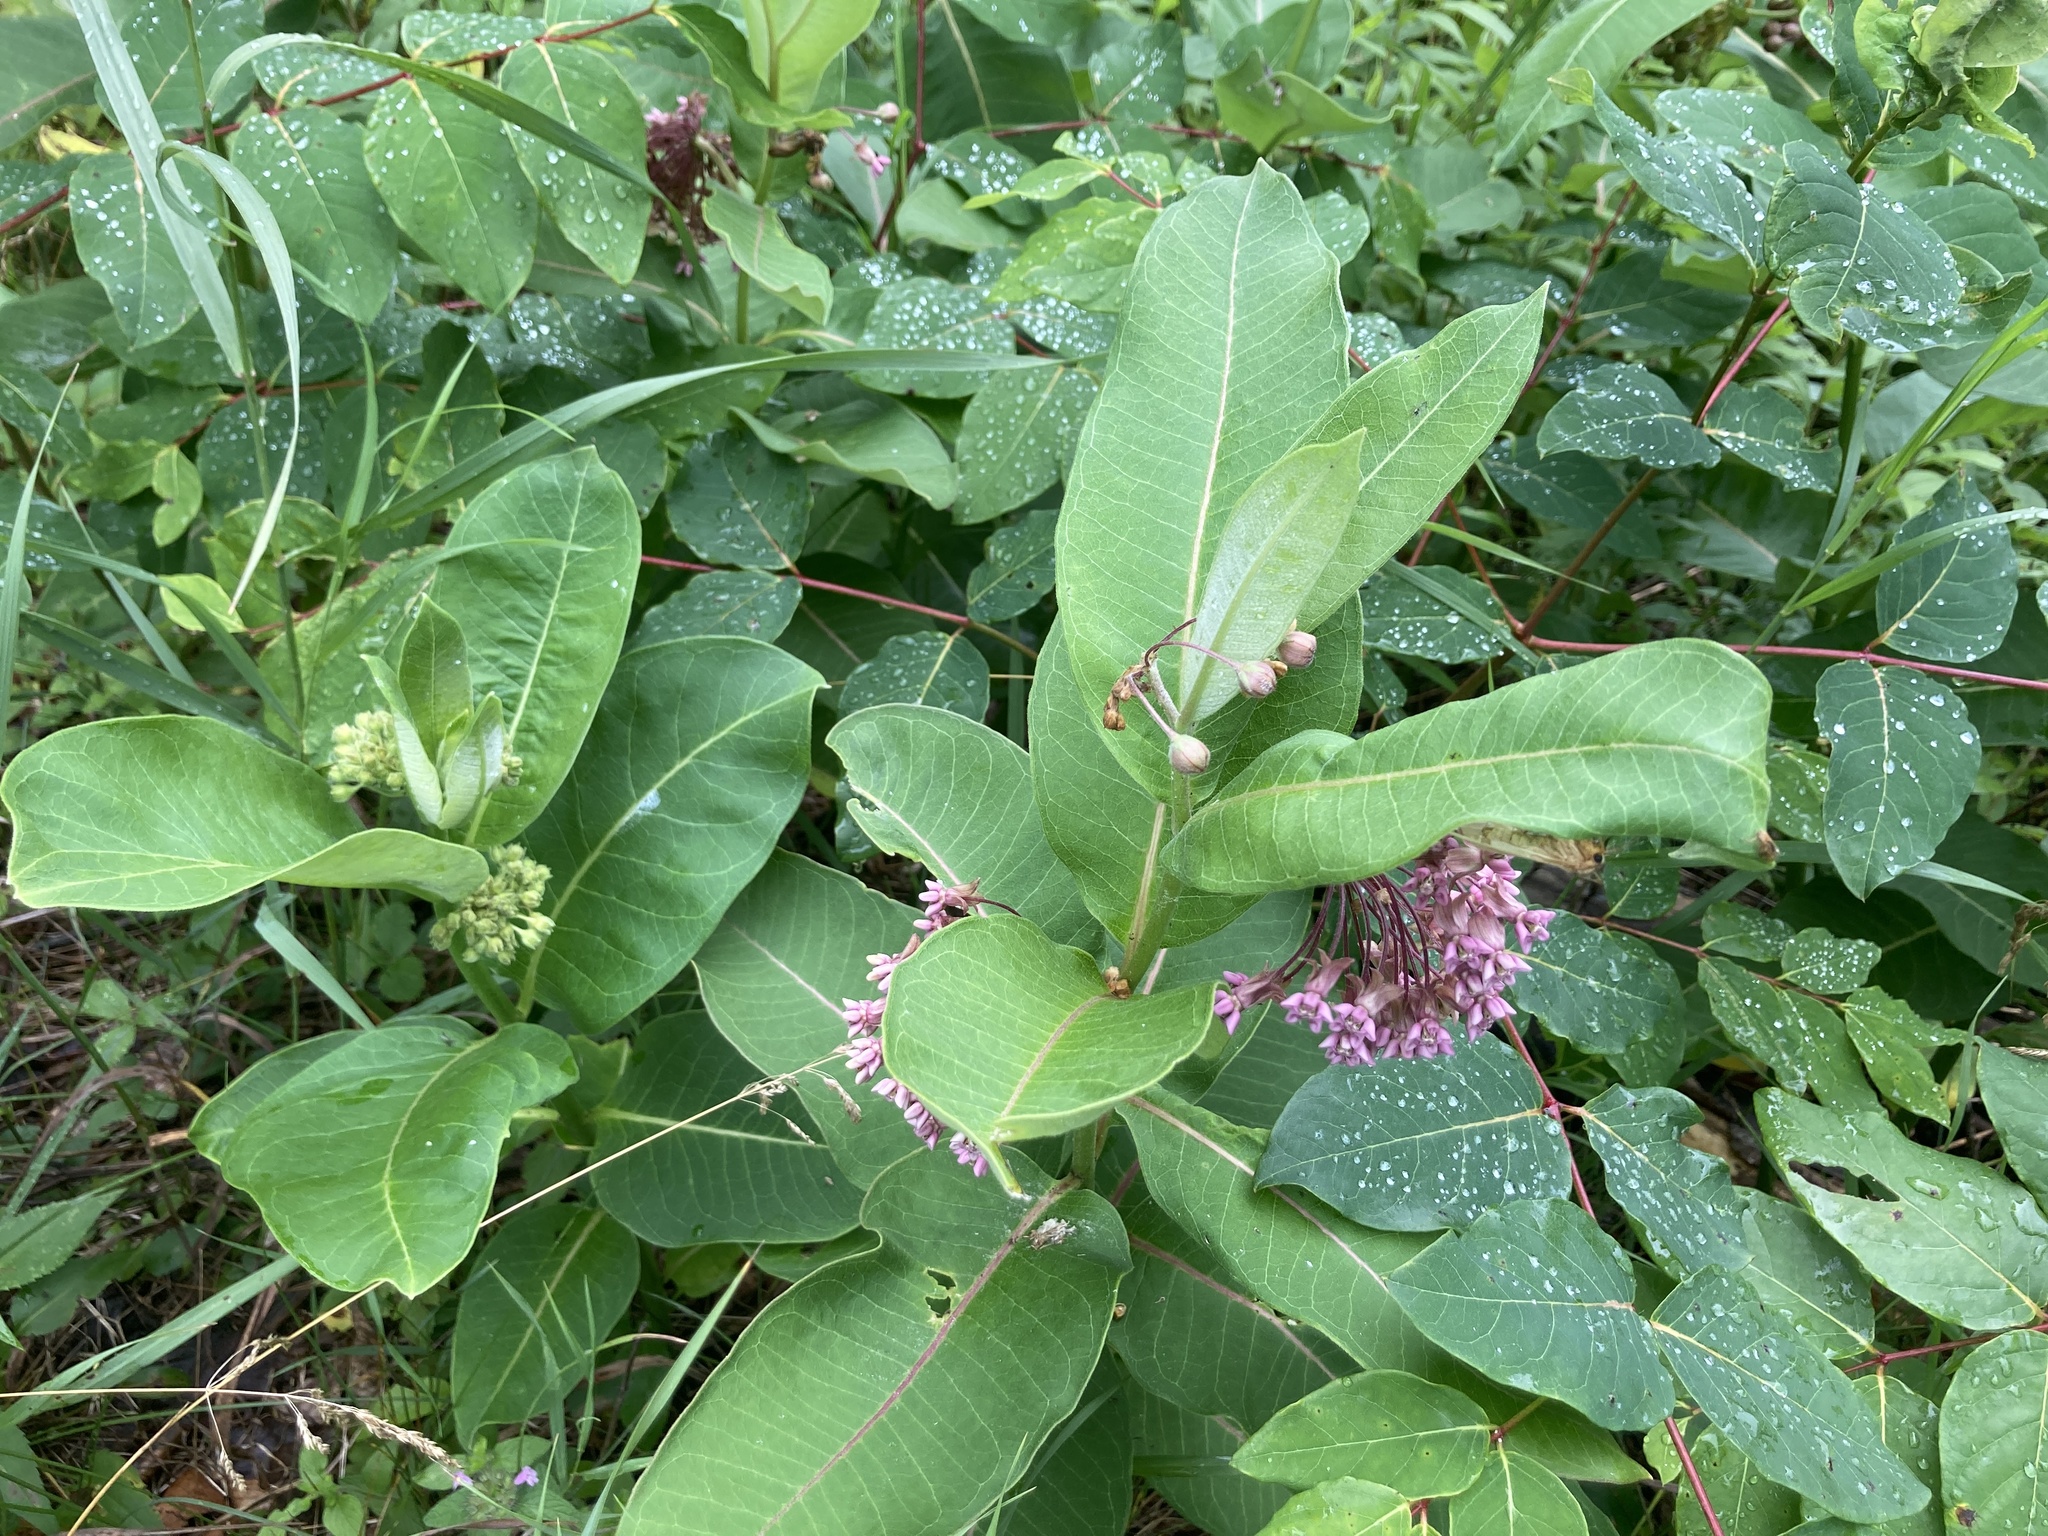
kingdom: Plantae
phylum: Tracheophyta
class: Magnoliopsida
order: Gentianales
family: Apocynaceae
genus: Asclepias
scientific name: Asclepias syriaca
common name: Common milkweed
